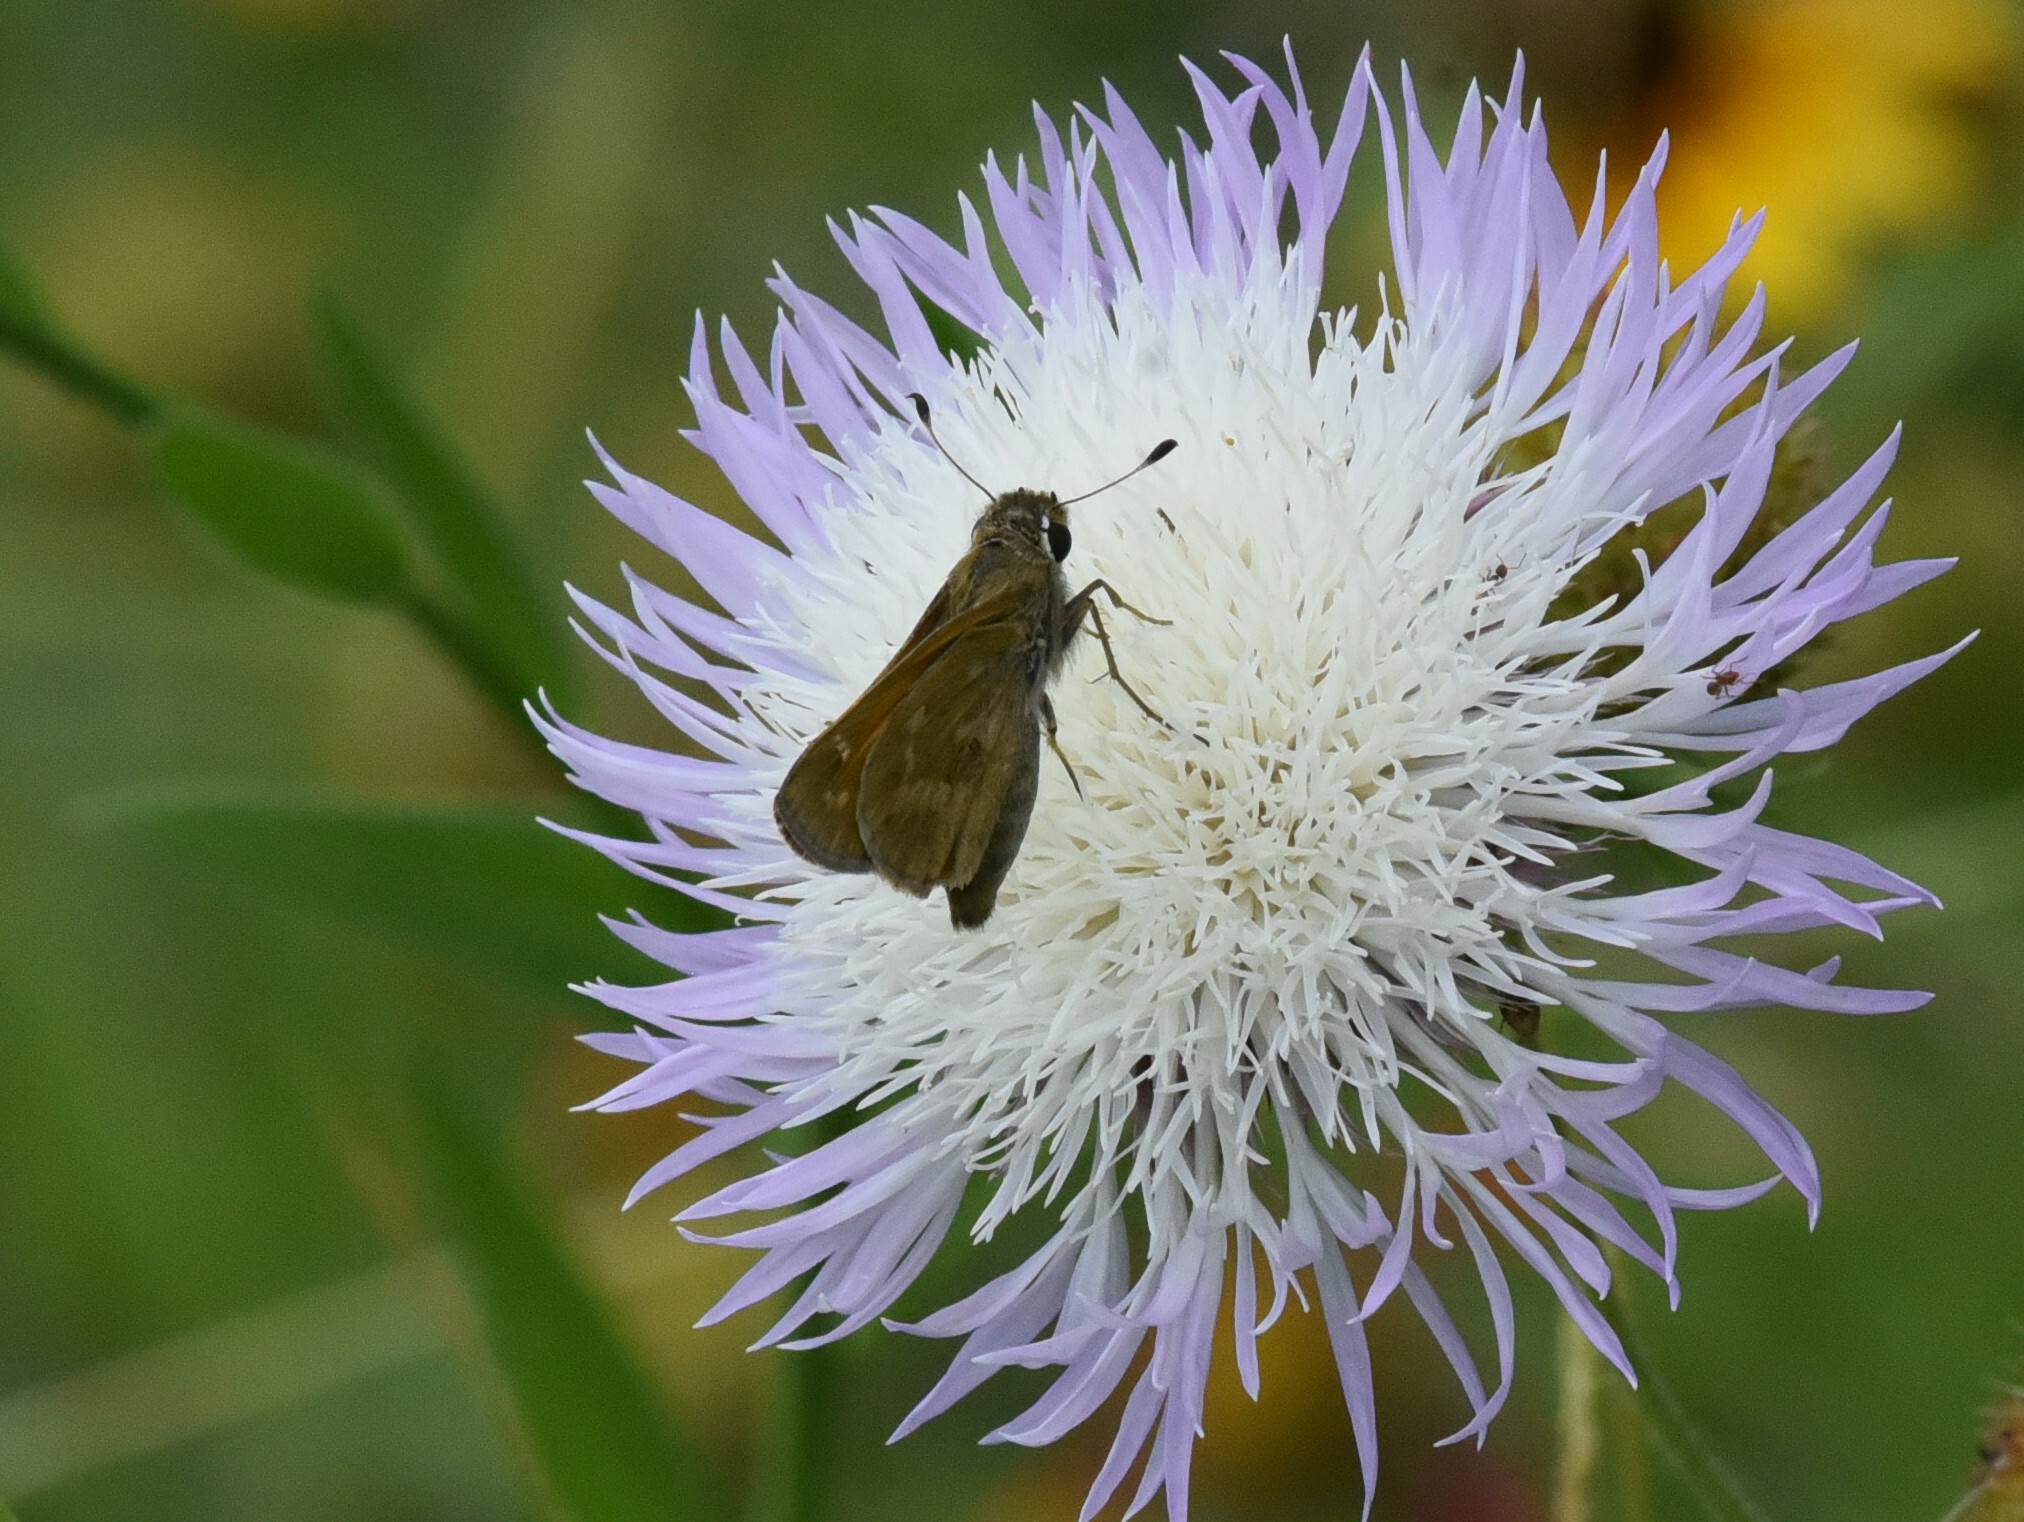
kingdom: Animalia
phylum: Arthropoda
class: Insecta
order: Lepidoptera
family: Hesperiidae
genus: Atalopedes
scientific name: Atalopedes
